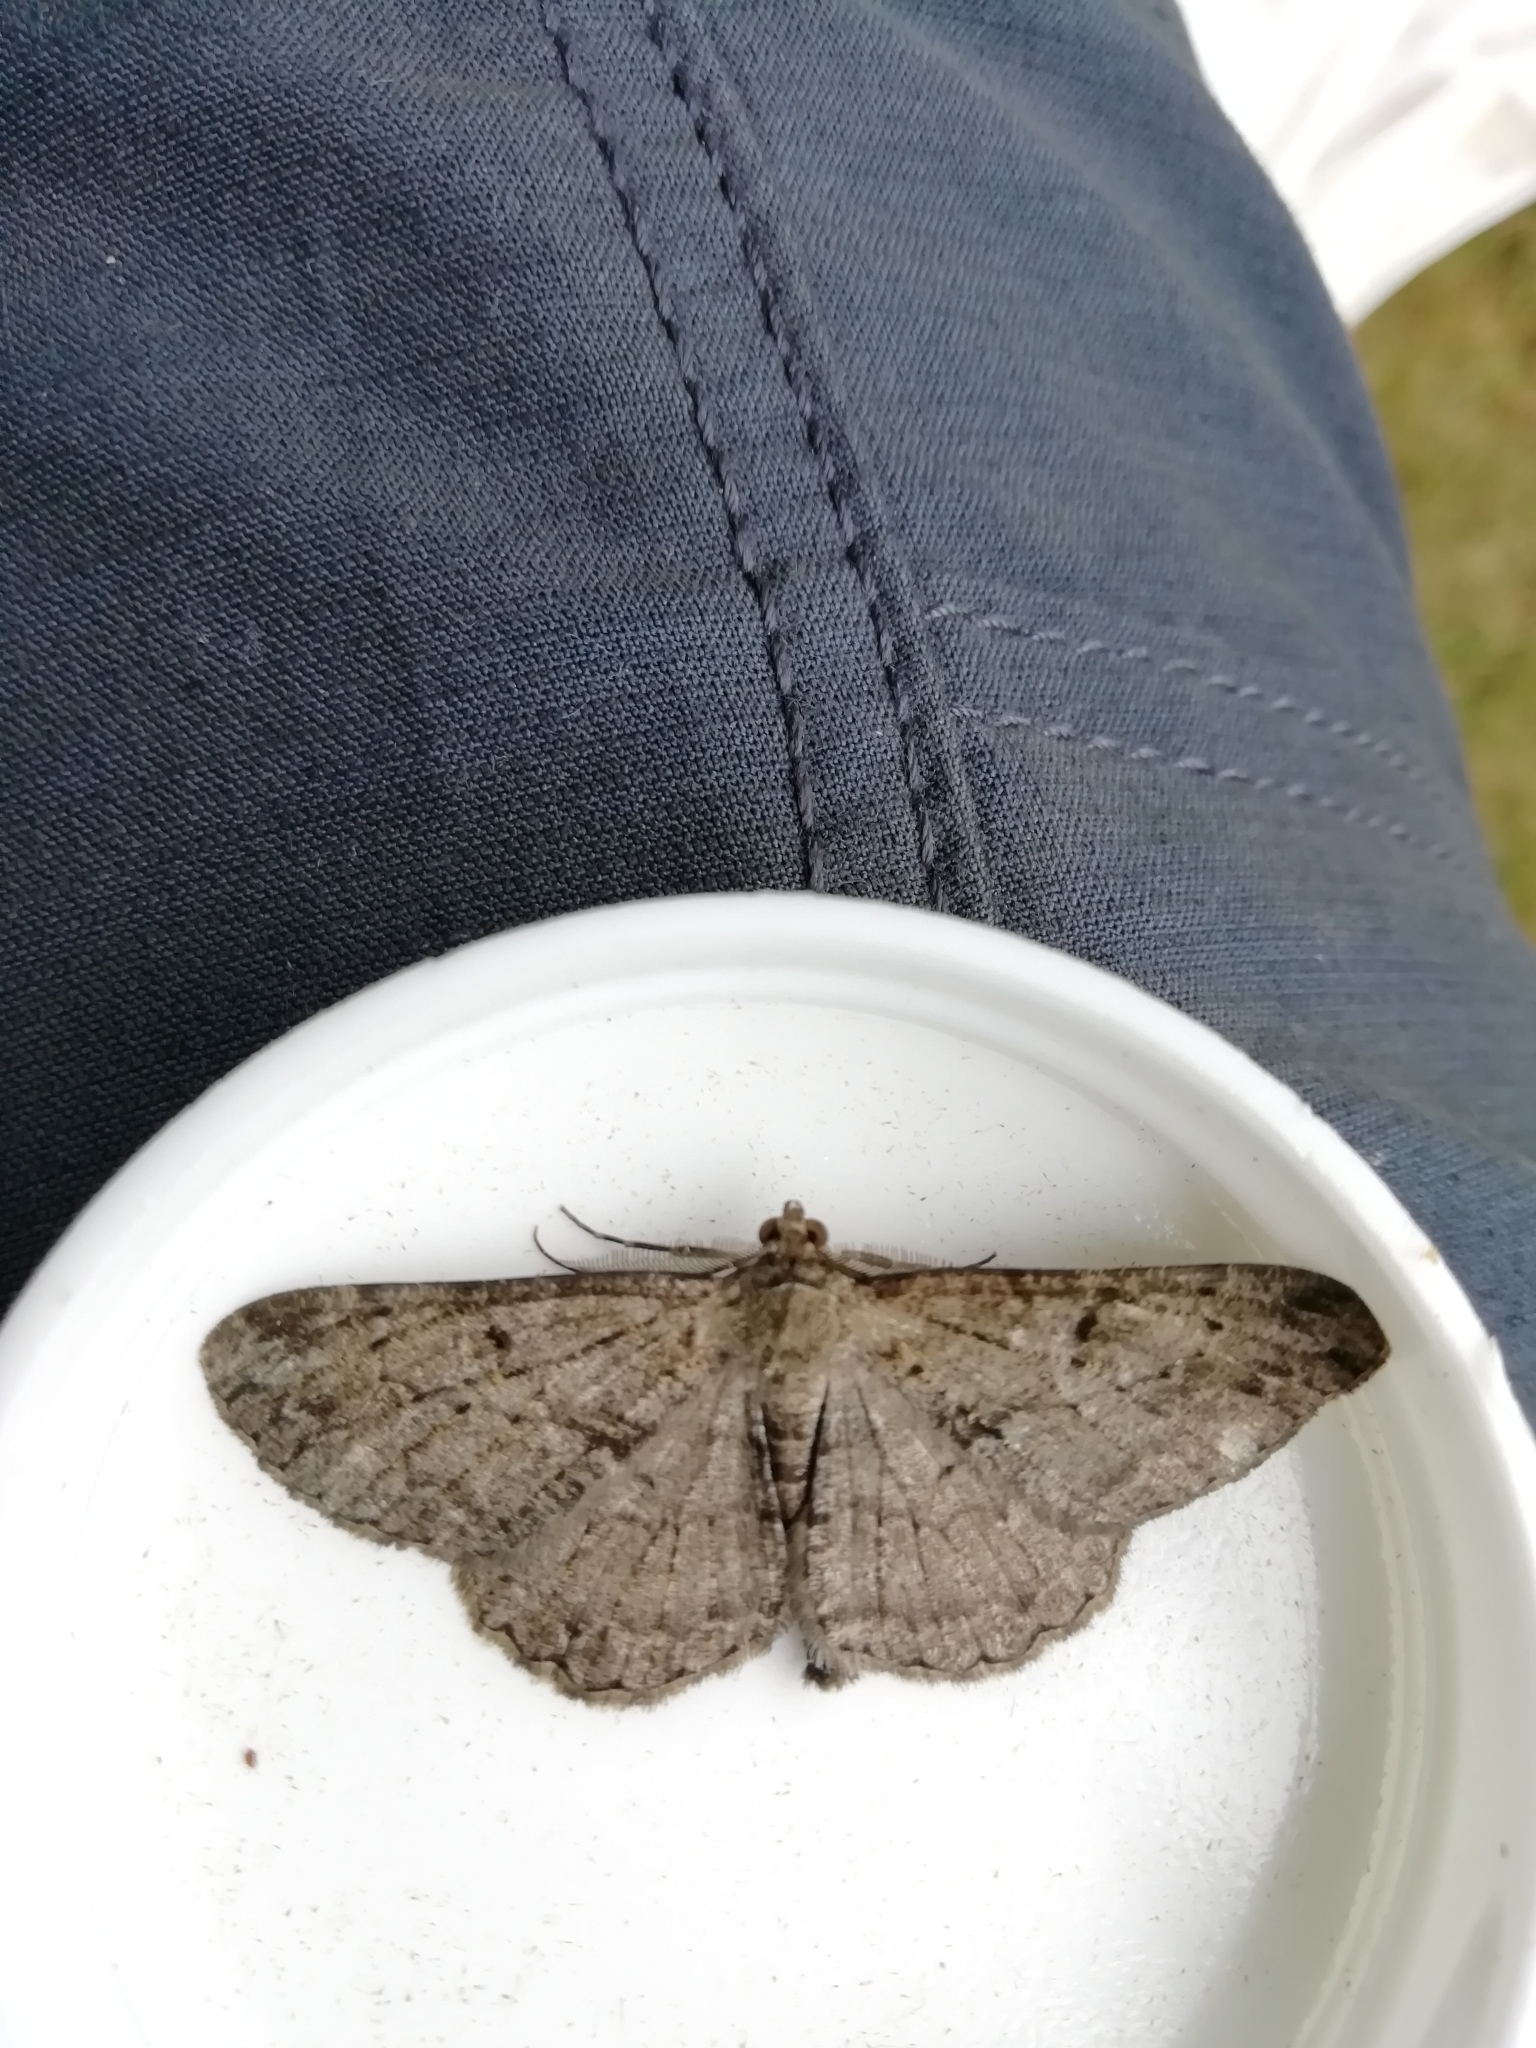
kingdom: Animalia
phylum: Arthropoda
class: Insecta
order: Lepidoptera
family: Geometridae
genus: Peribatodes
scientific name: Peribatodes rhomboidaria
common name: Willow beauty
